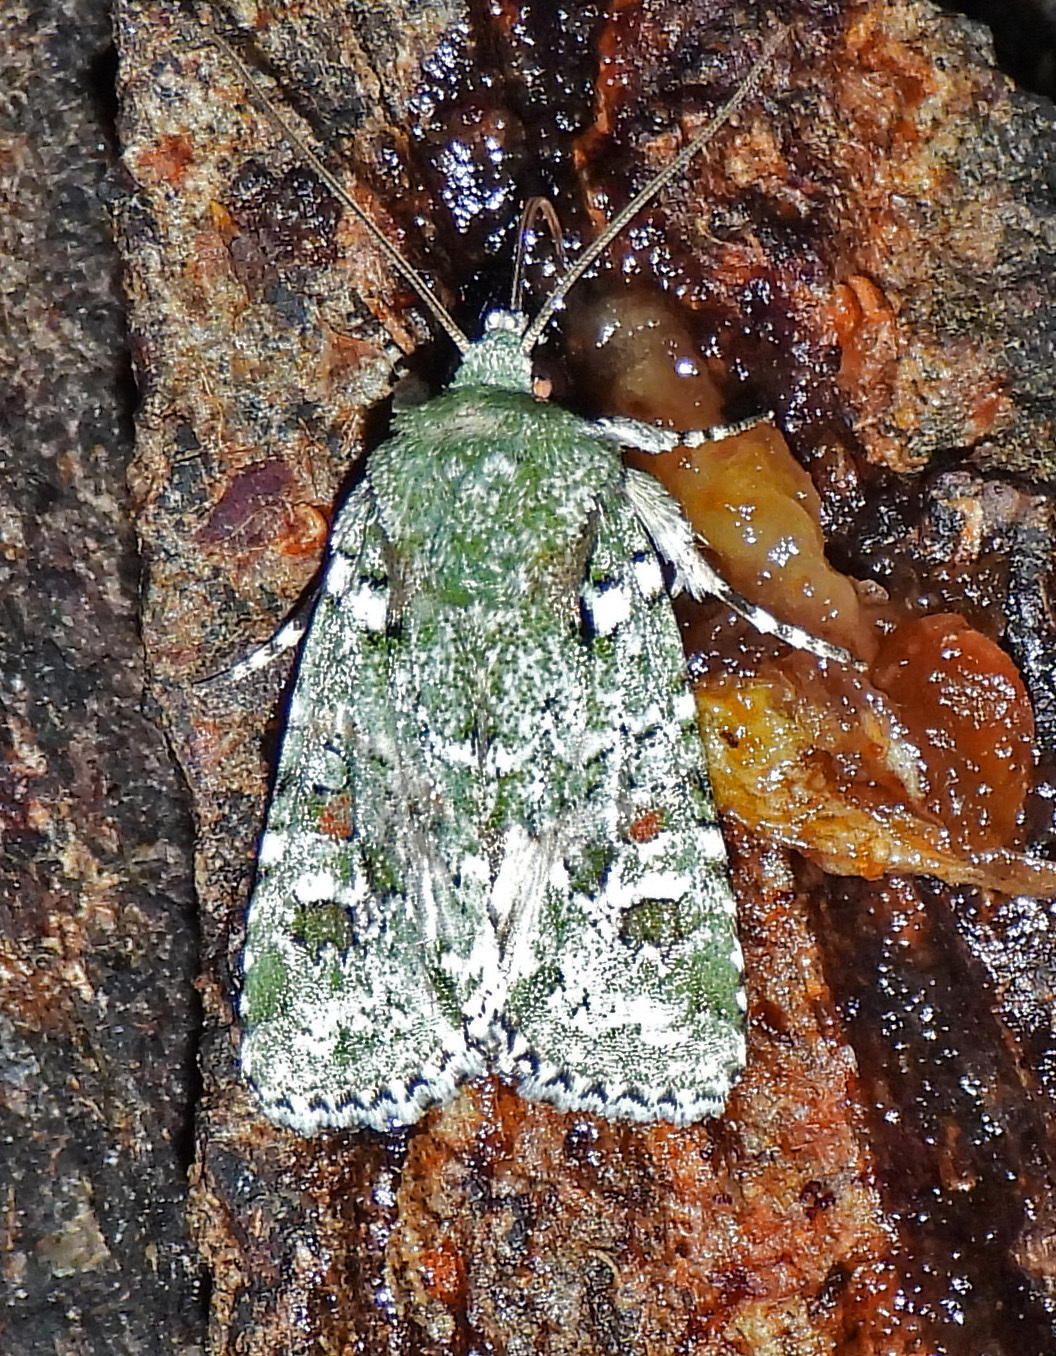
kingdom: Animalia
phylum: Arthropoda
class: Insecta
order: Lepidoptera
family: Noctuidae
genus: Lacinipolia
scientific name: Lacinipolia laudabilis
